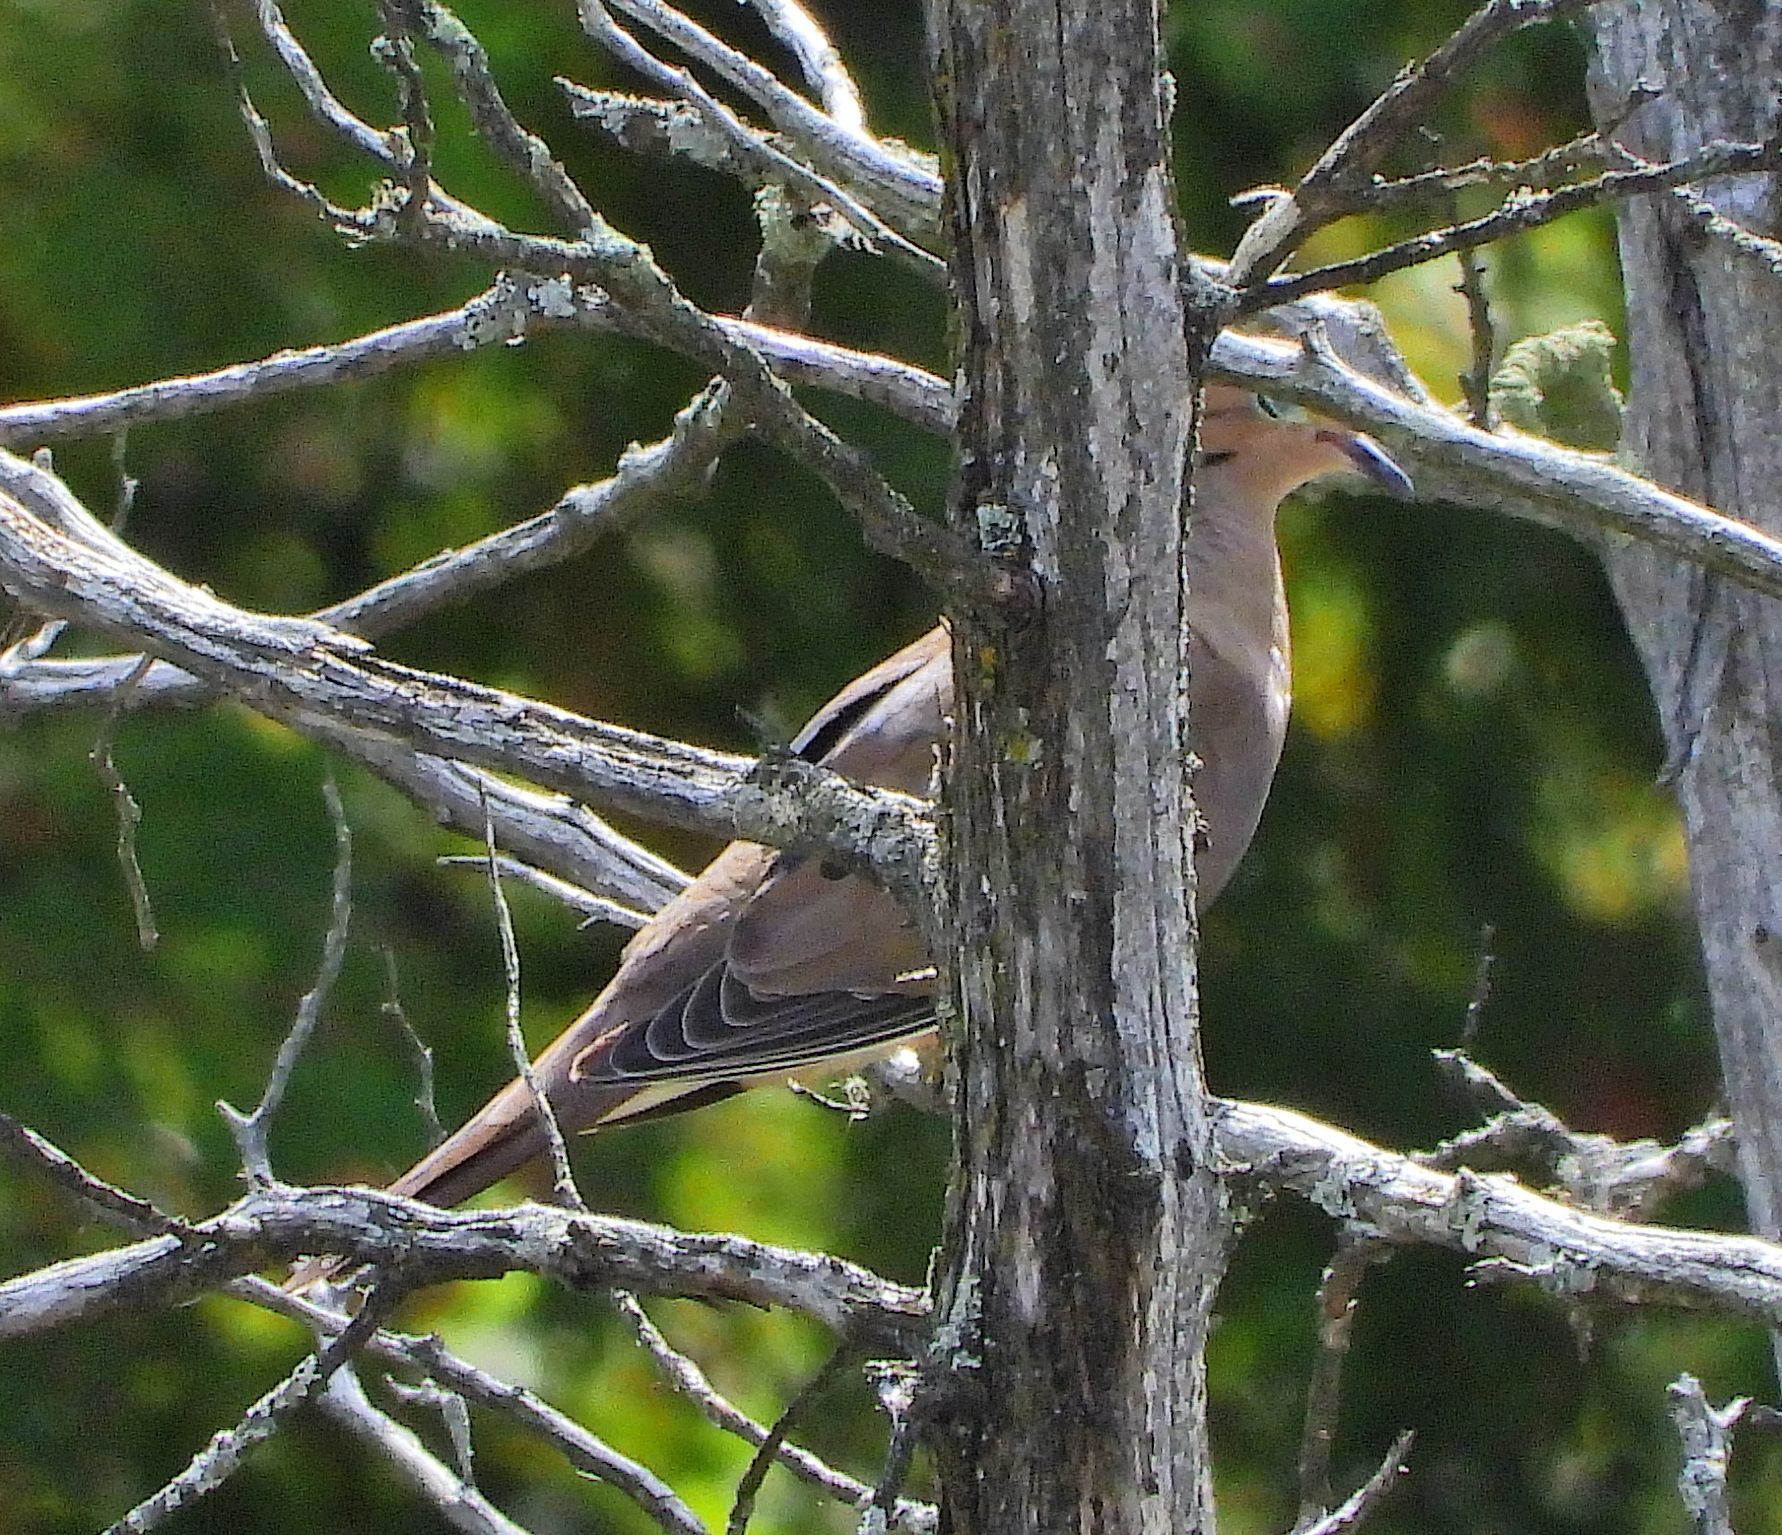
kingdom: Animalia
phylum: Chordata
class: Aves
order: Columbiformes
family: Columbidae
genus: Zenaida
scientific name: Zenaida macroura
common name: Mourning dove
